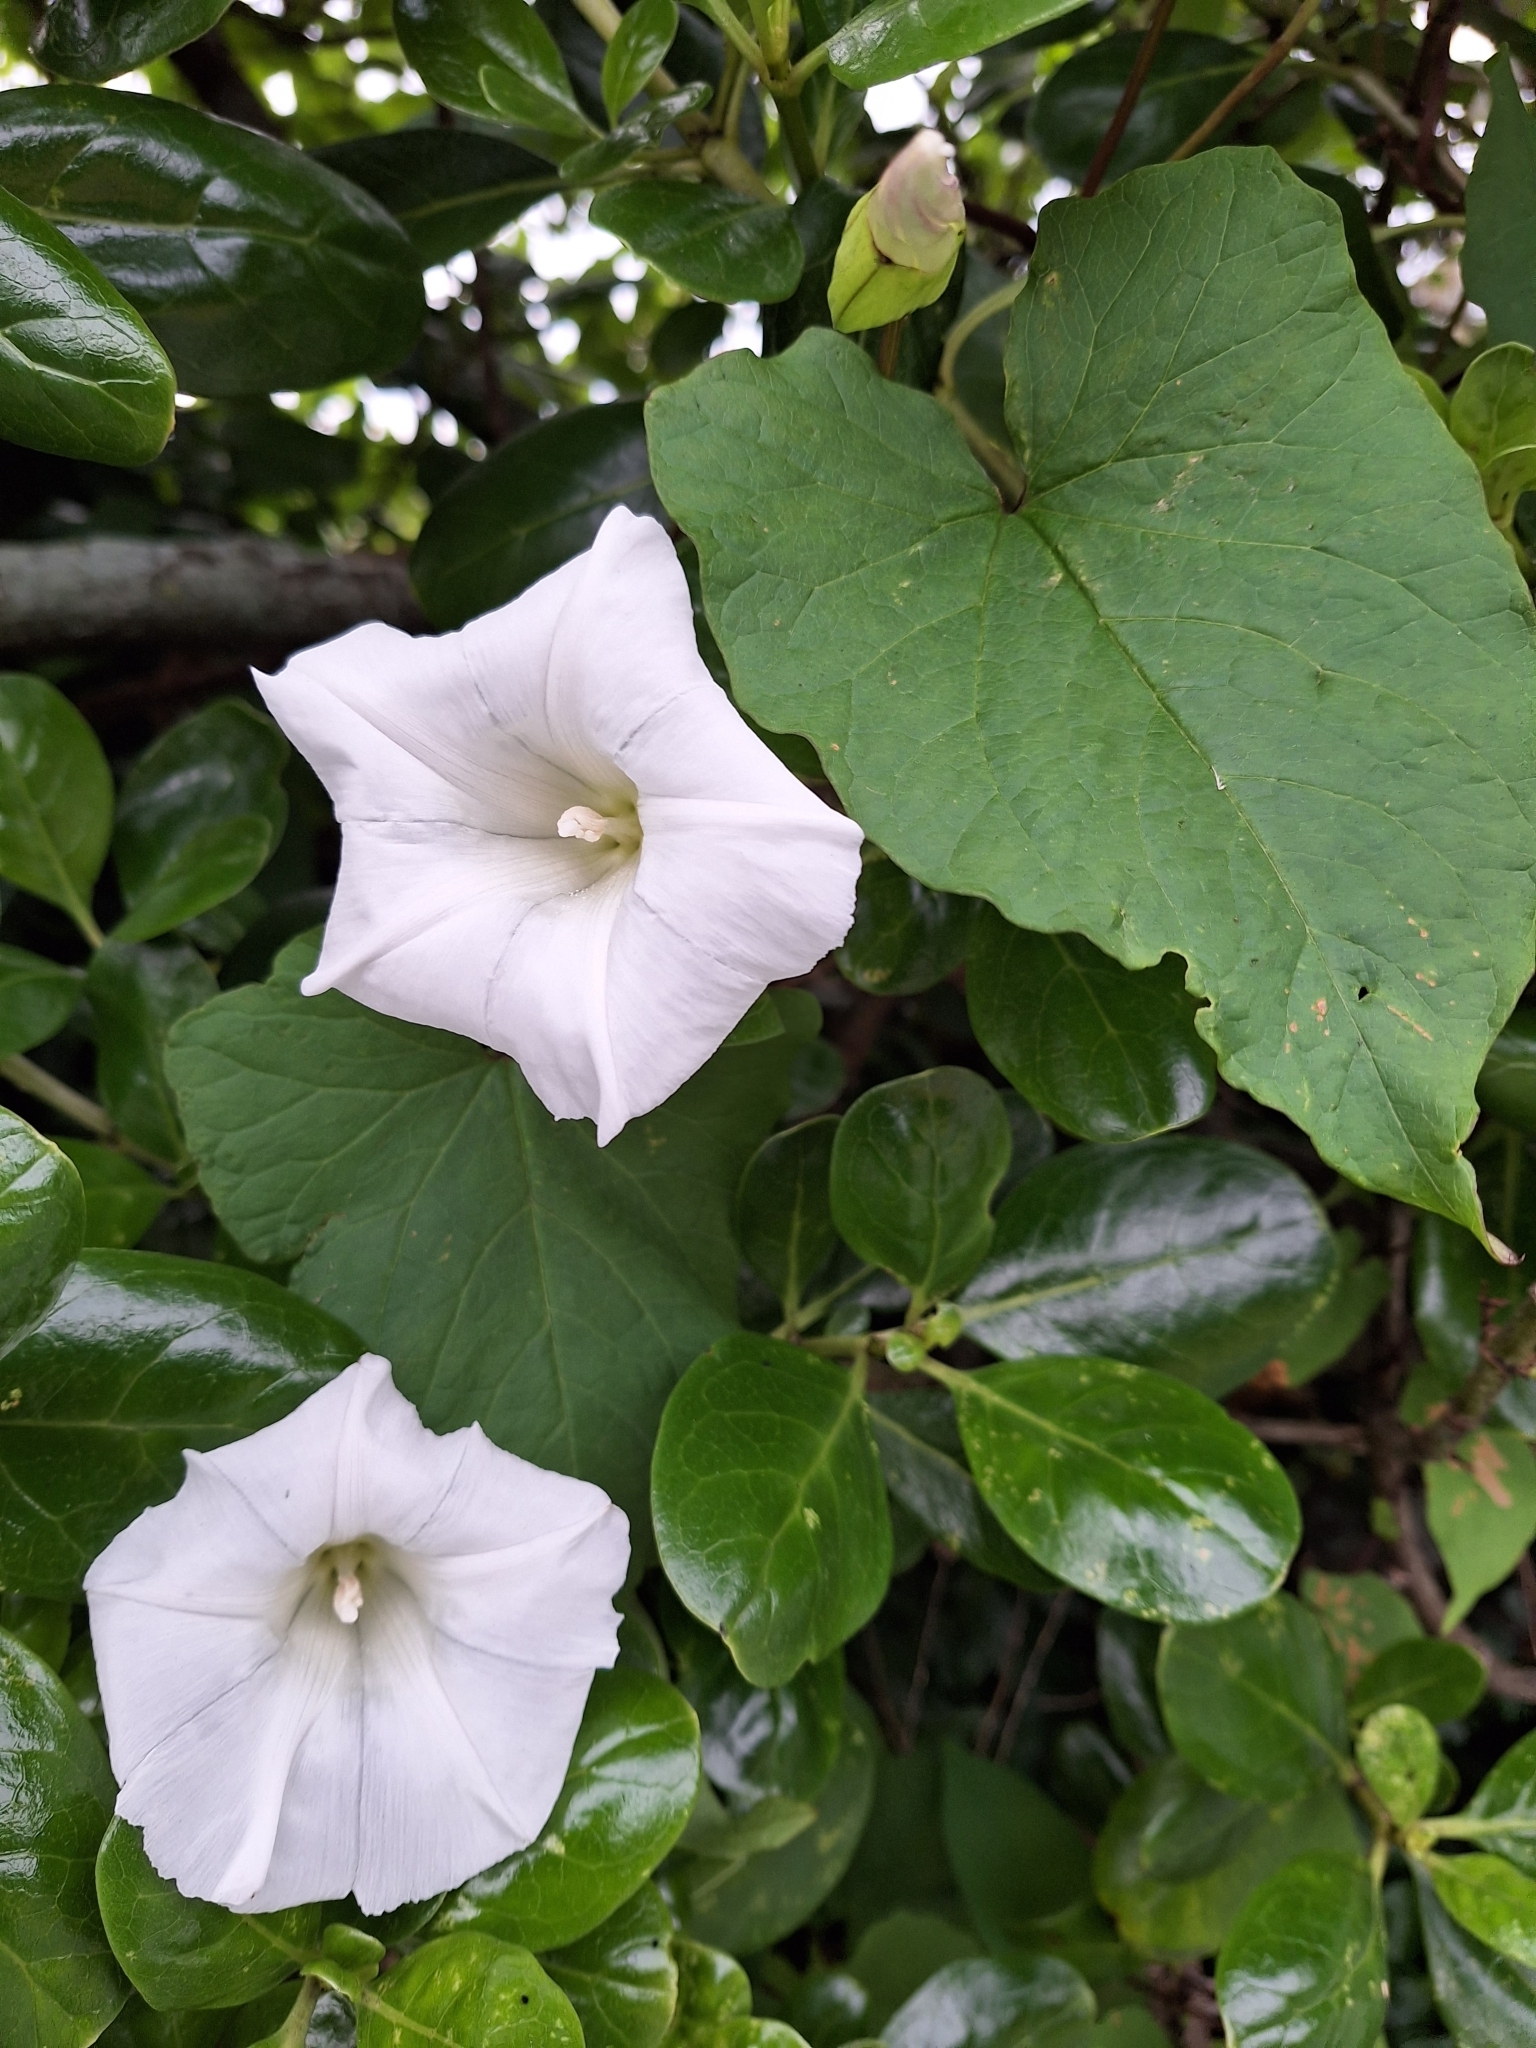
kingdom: Plantae
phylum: Tracheophyta
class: Magnoliopsida
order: Solanales
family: Convolvulaceae
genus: Calystegia
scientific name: Calystegia silvatica
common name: Large bindweed
